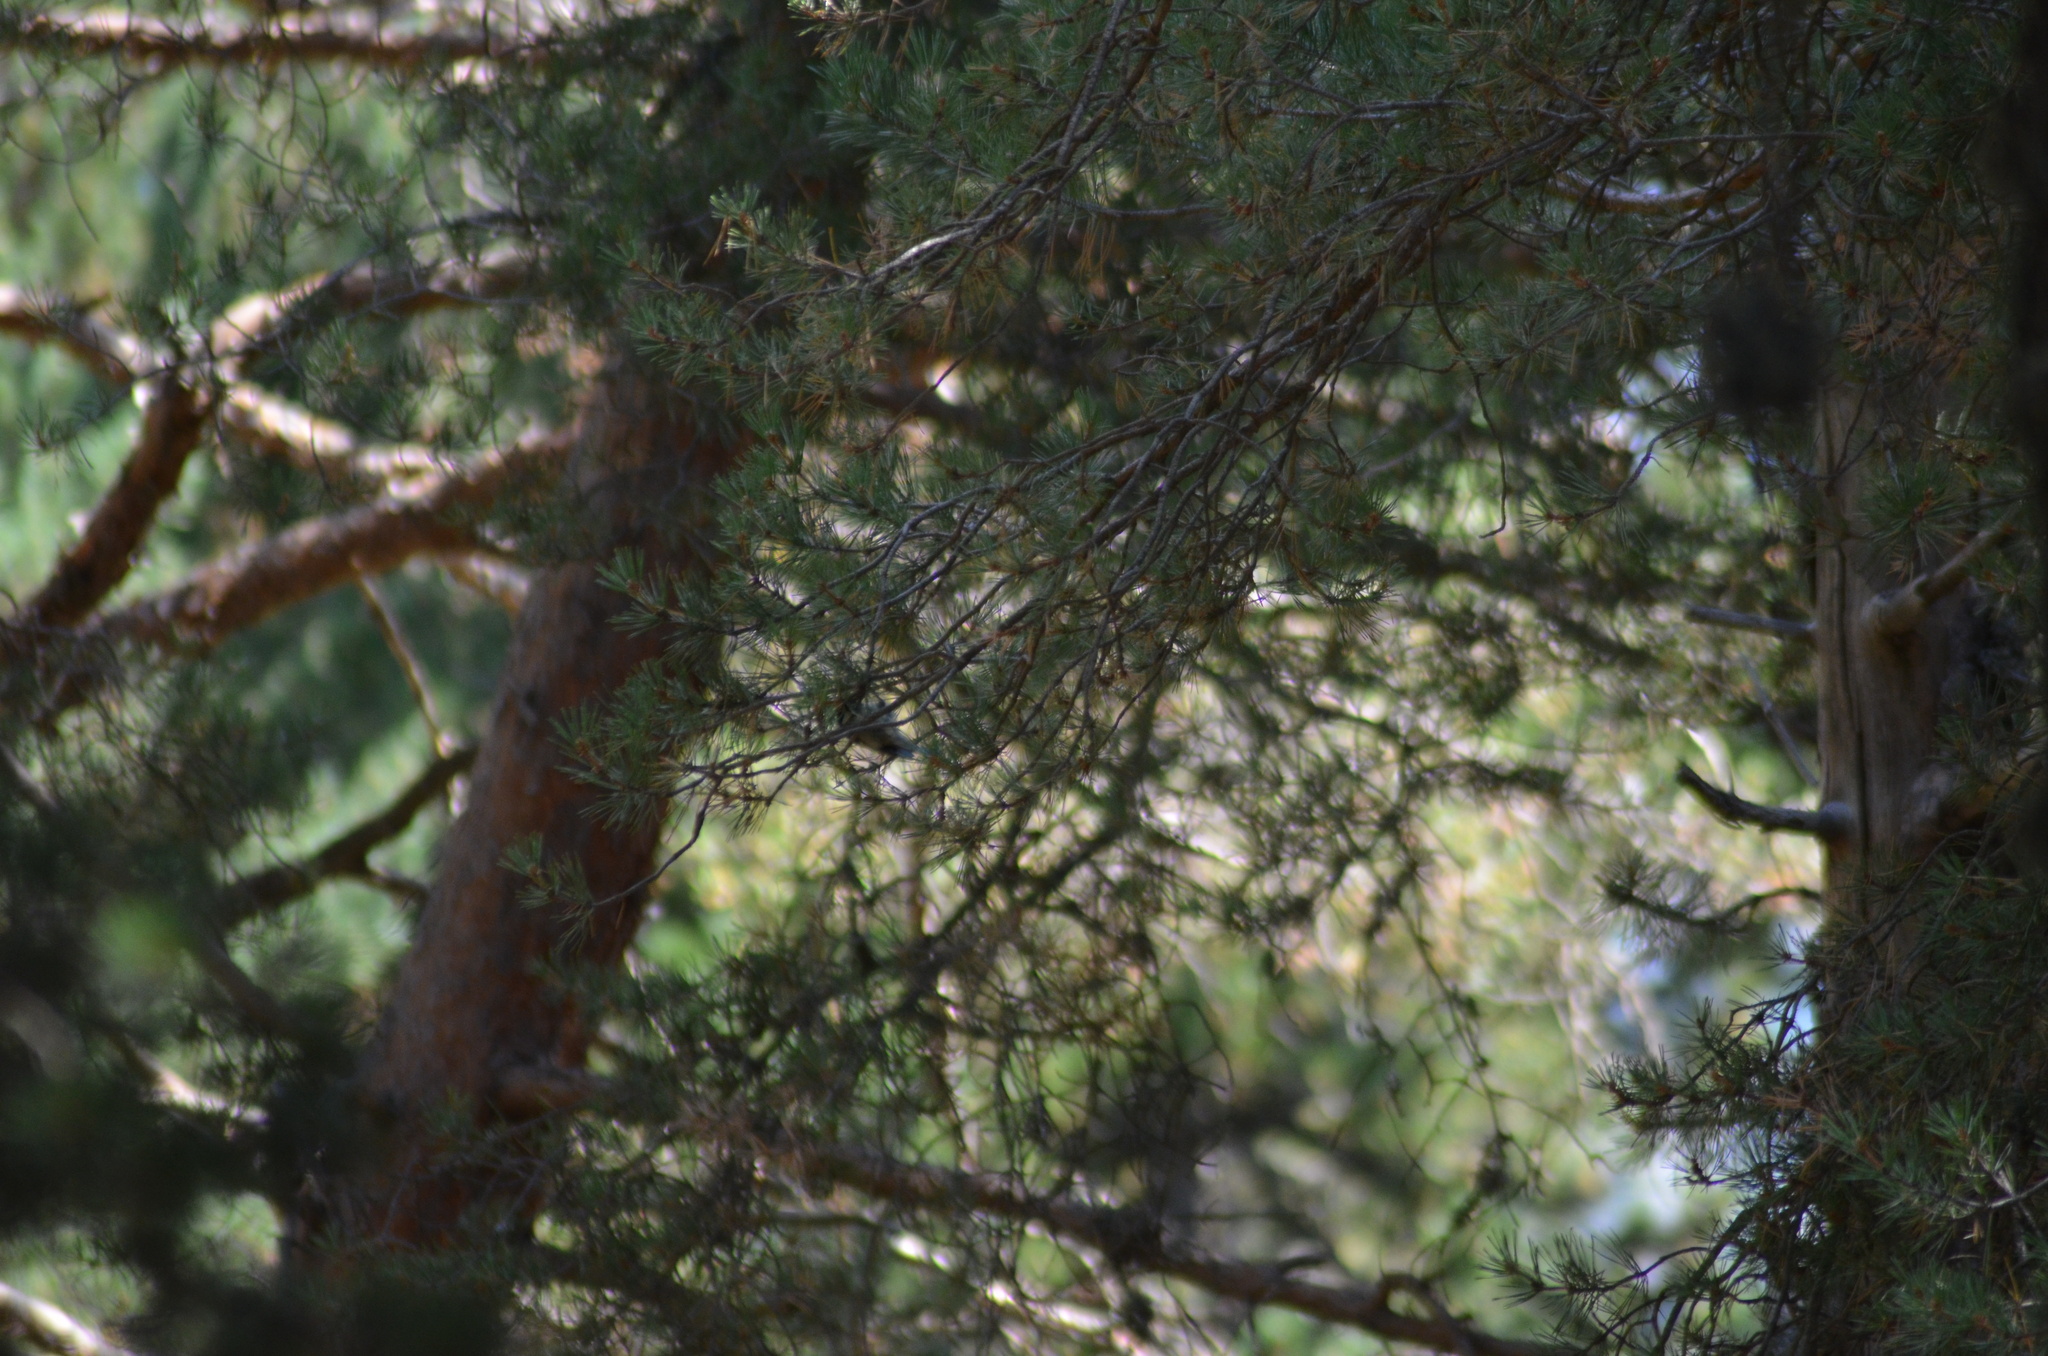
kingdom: Animalia
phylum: Chordata
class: Aves
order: Passeriformes
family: Paridae
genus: Periparus
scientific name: Periparus ater
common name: Coal tit
